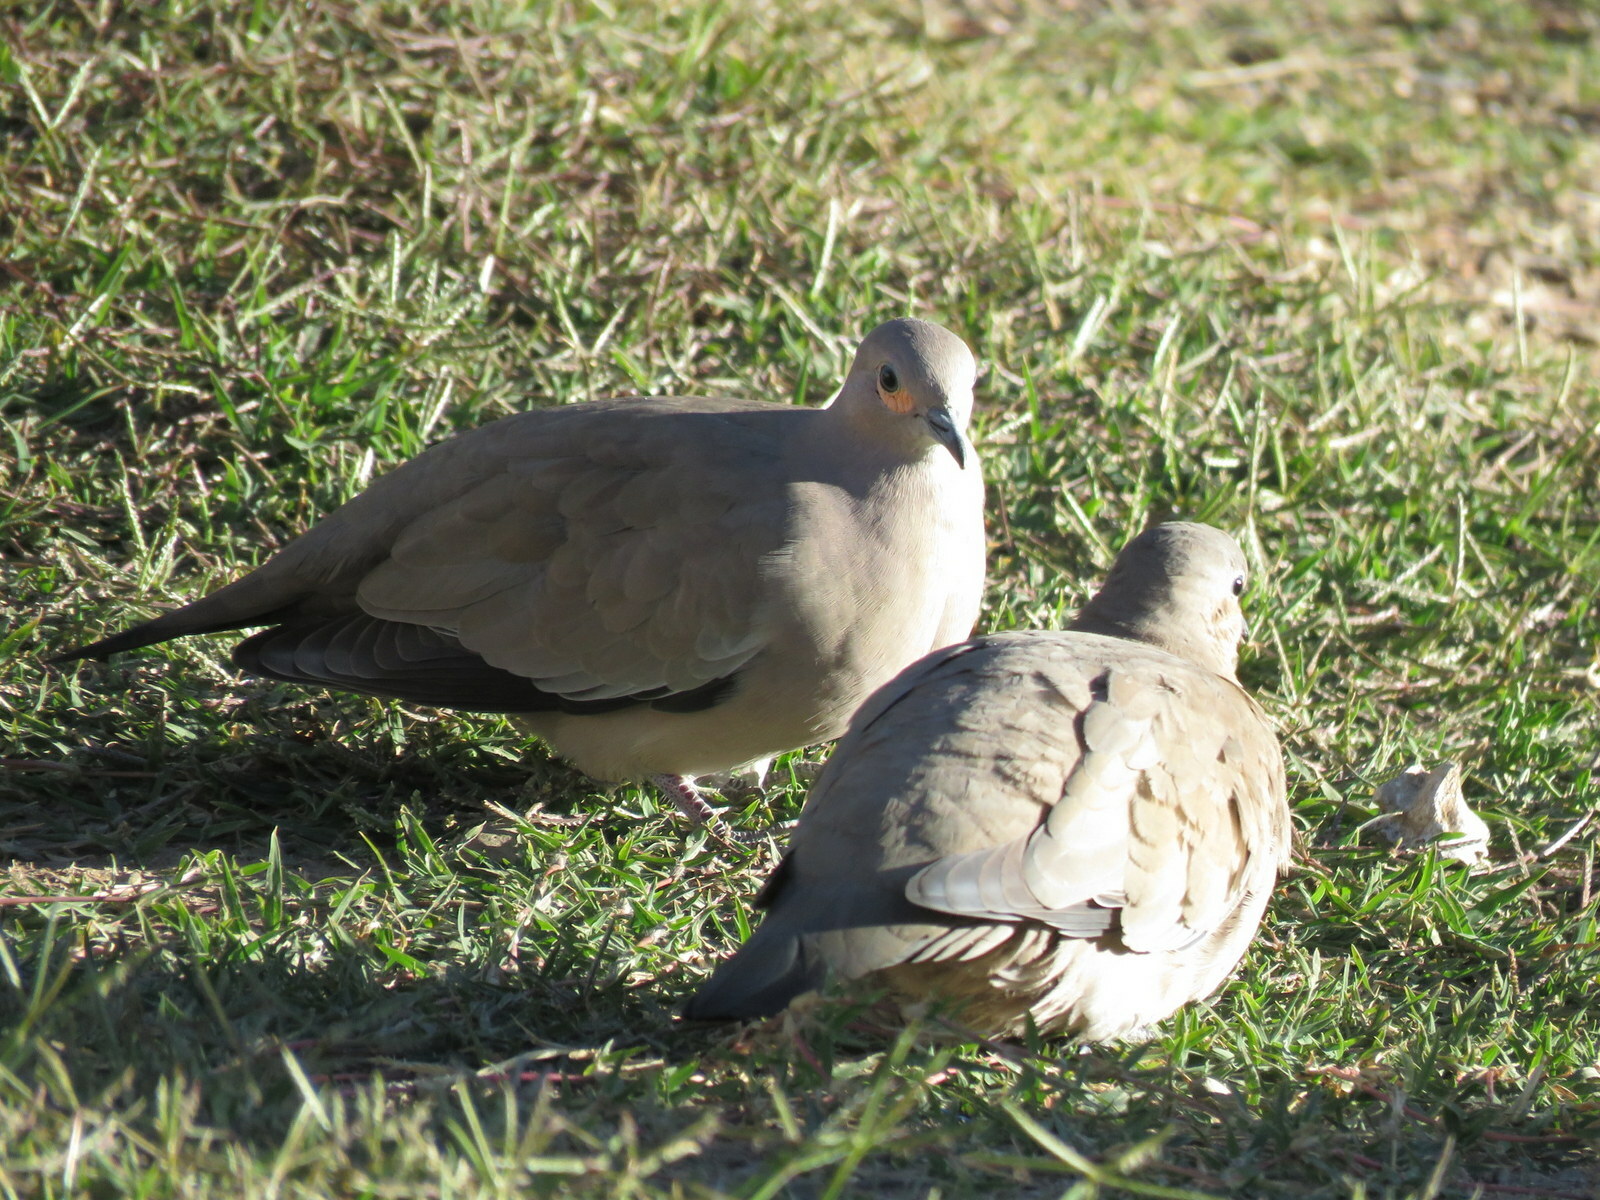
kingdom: Animalia
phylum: Chordata
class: Aves
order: Columbiformes
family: Columbidae
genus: Metriopelia
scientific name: Metriopelia melanoptera
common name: Black-winged ground dove
